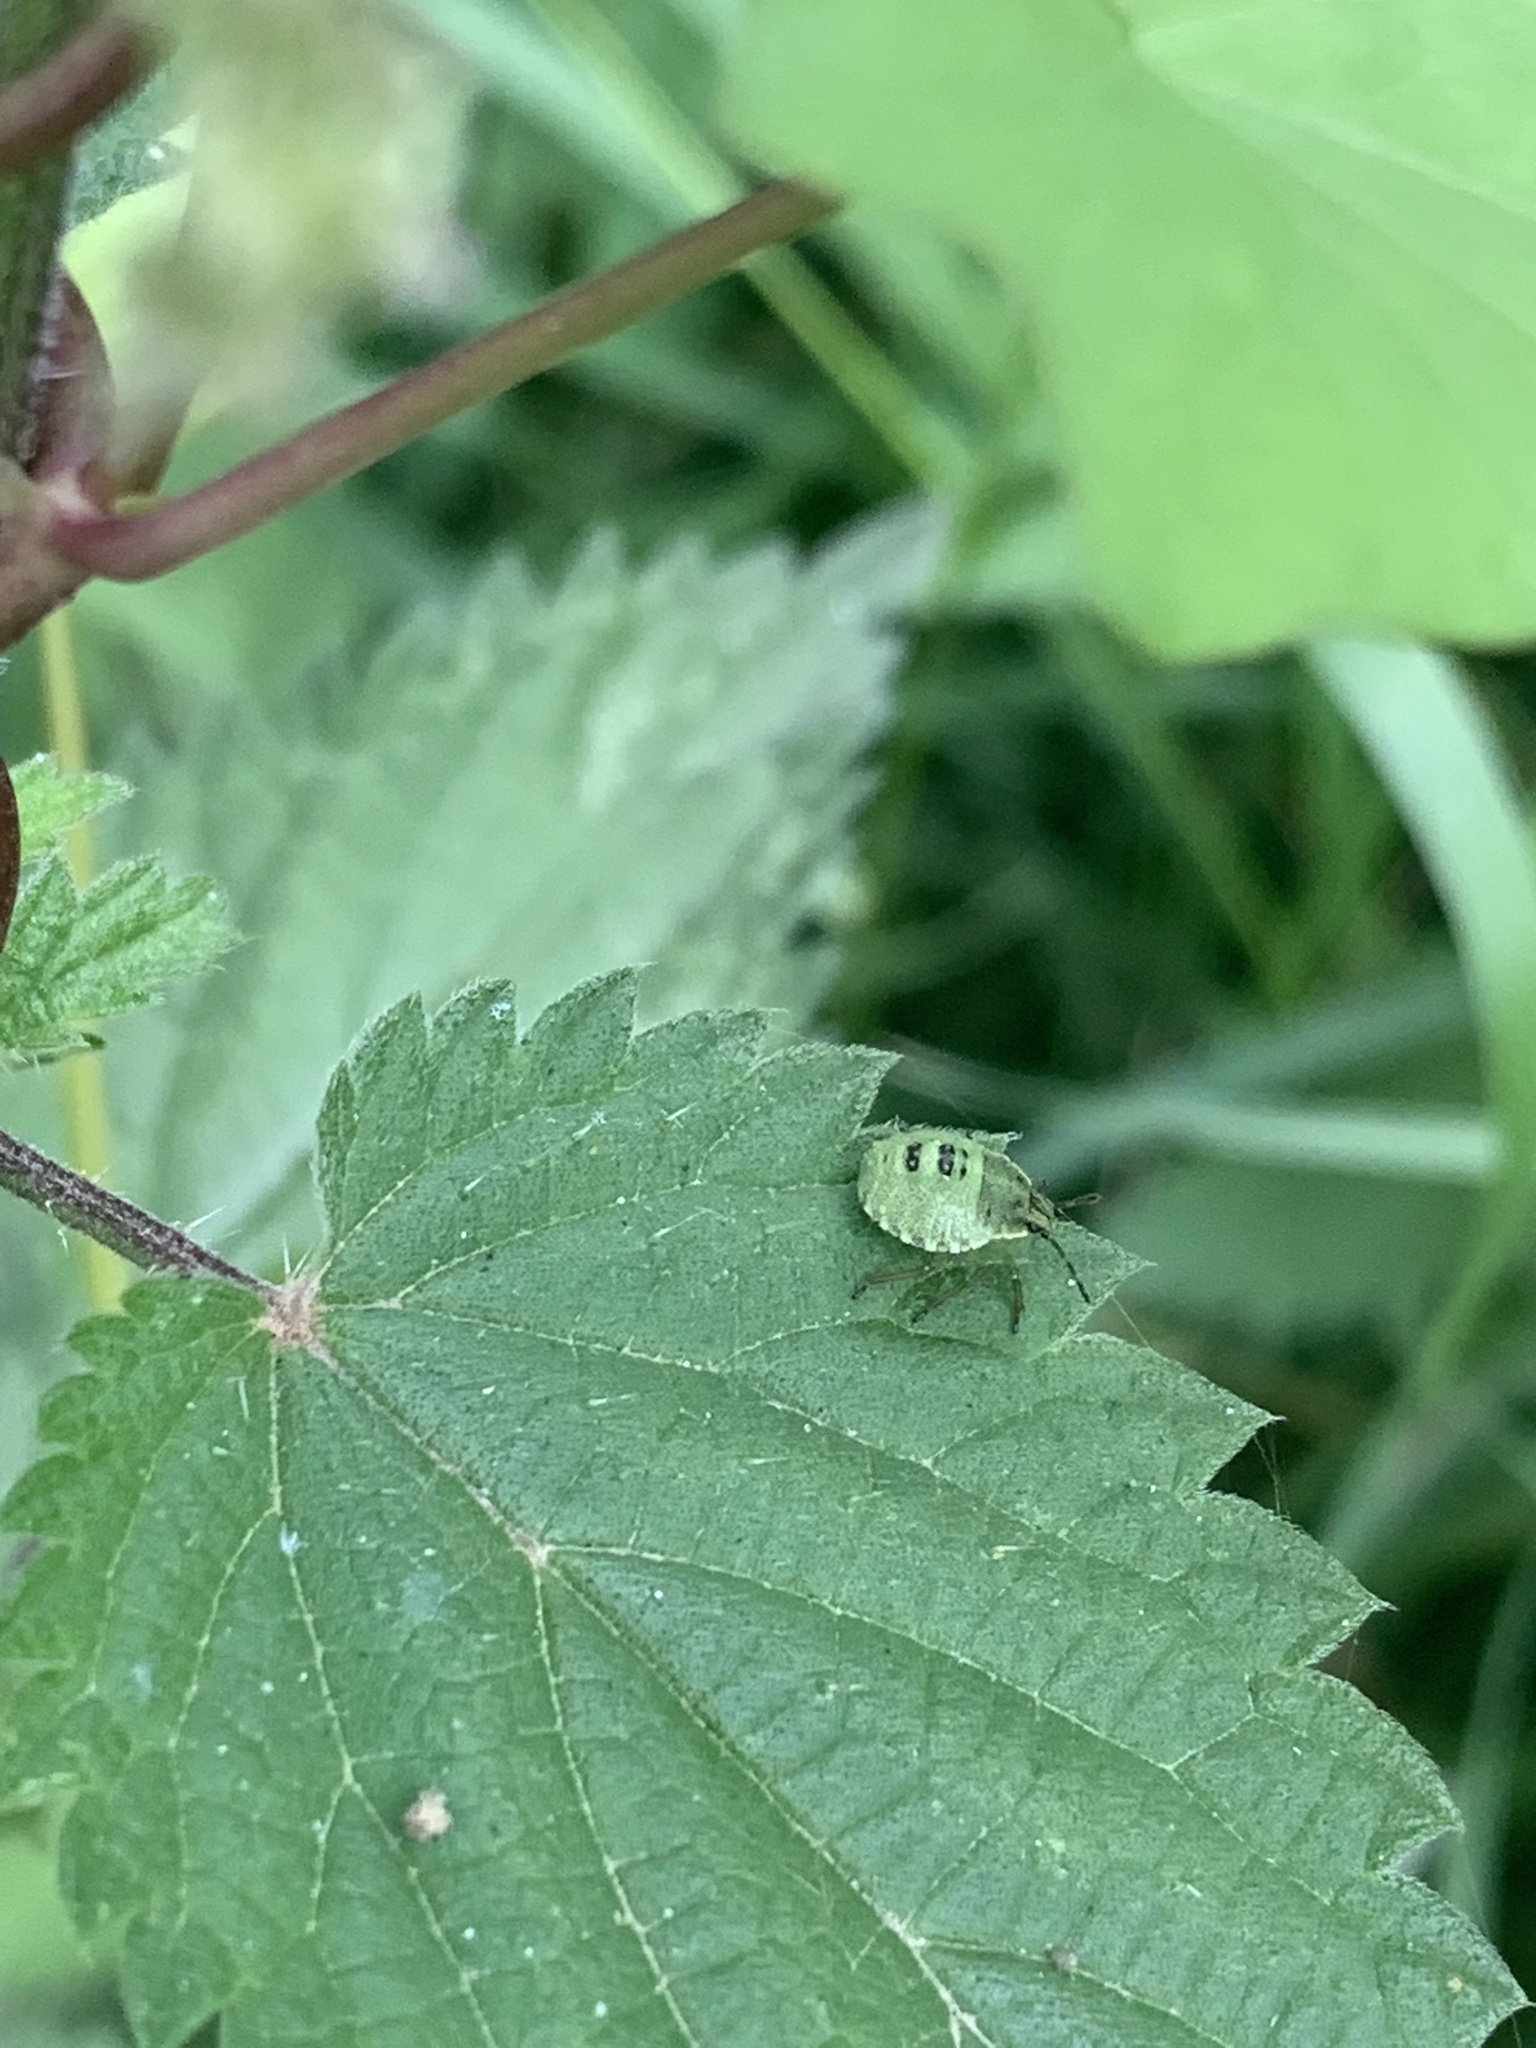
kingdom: Animalia
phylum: Arthropoda
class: Insecta
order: Hemiptera
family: Pentatomidae
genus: Palomena
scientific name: Palomena prasina
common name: Green shieldbug
